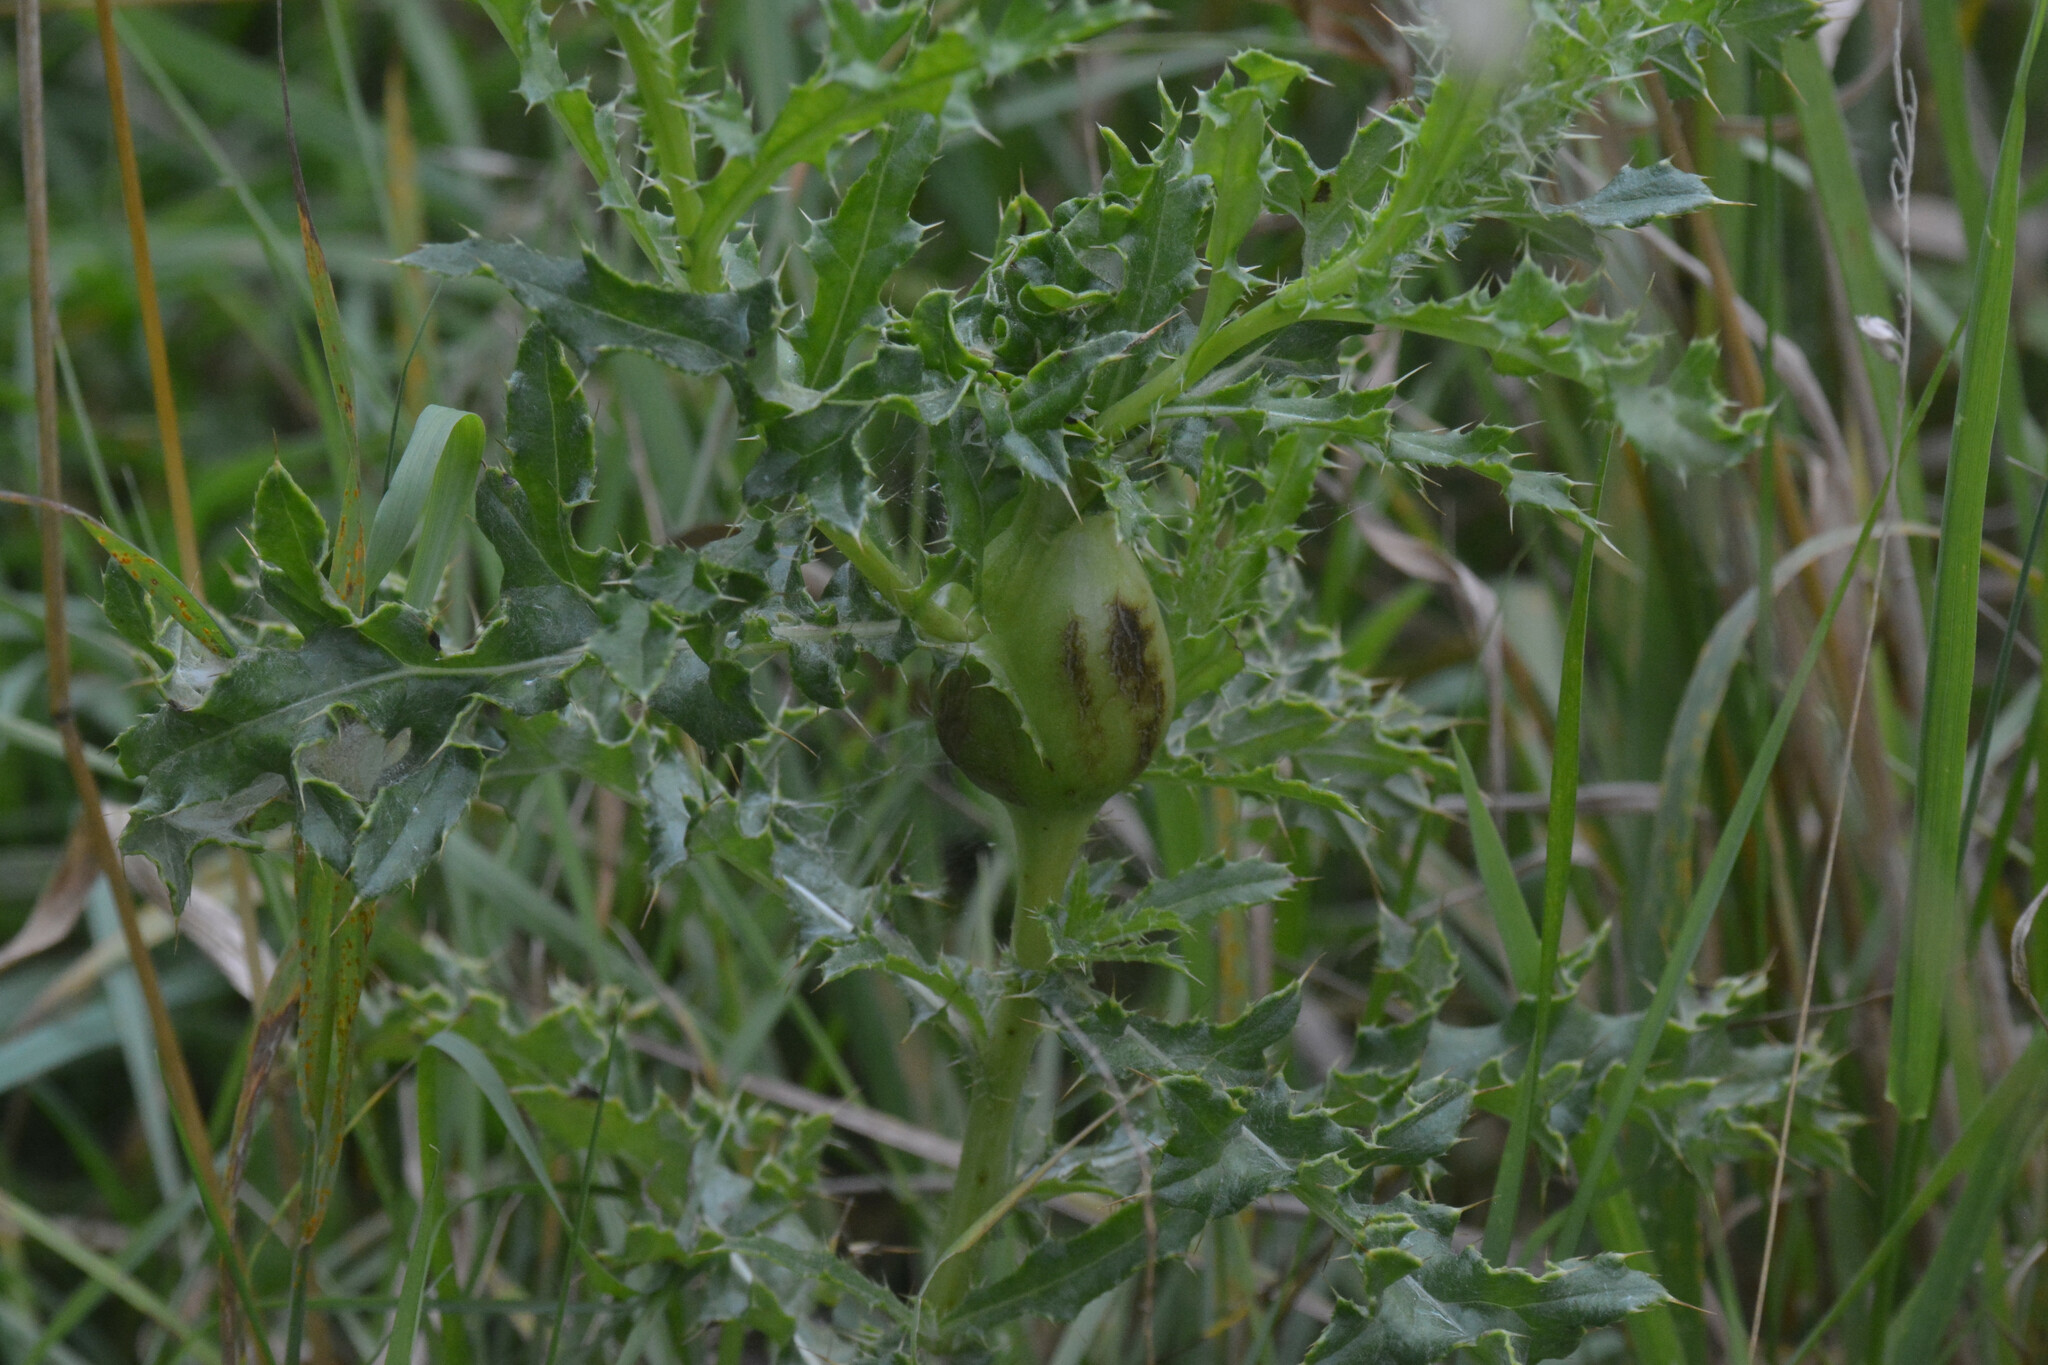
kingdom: Animalia
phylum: Arthropoda
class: Insecta
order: Diptera
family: Tephritidae
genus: Urophora
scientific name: Urophora cardui
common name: Fruit fly
